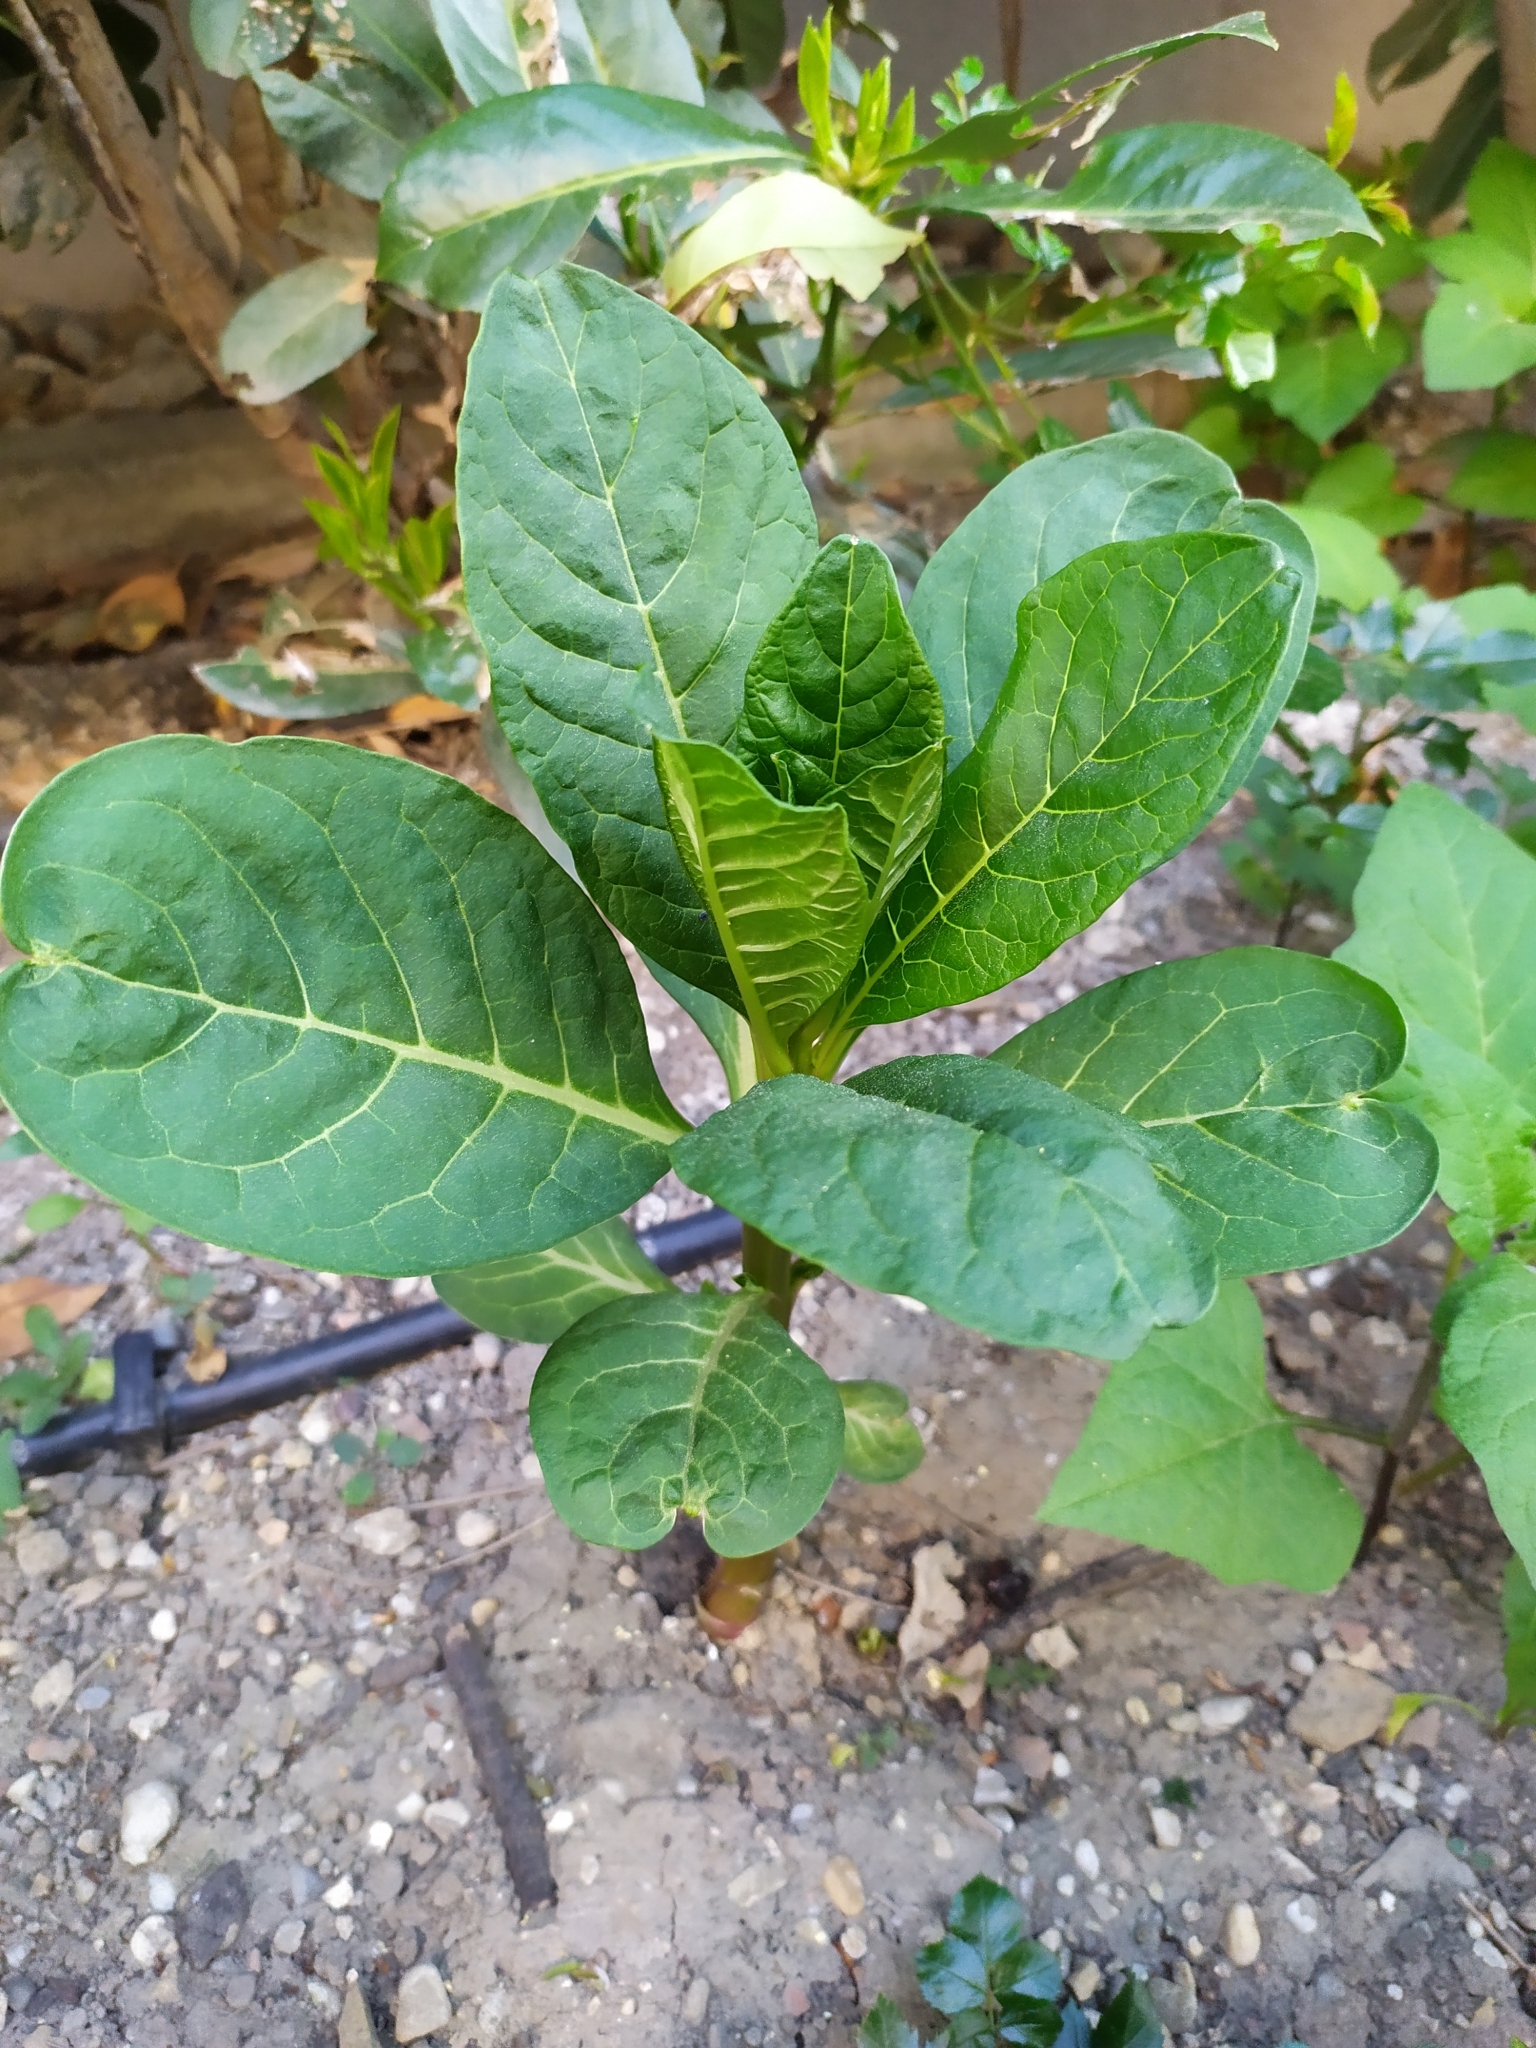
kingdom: Plantae
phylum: Tracheophyta
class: Magnoliopsida
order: Caryophyllales
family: Phytolaccaceae
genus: Phytolacca
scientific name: Phytolacca acinosa
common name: Indian pokeweed
